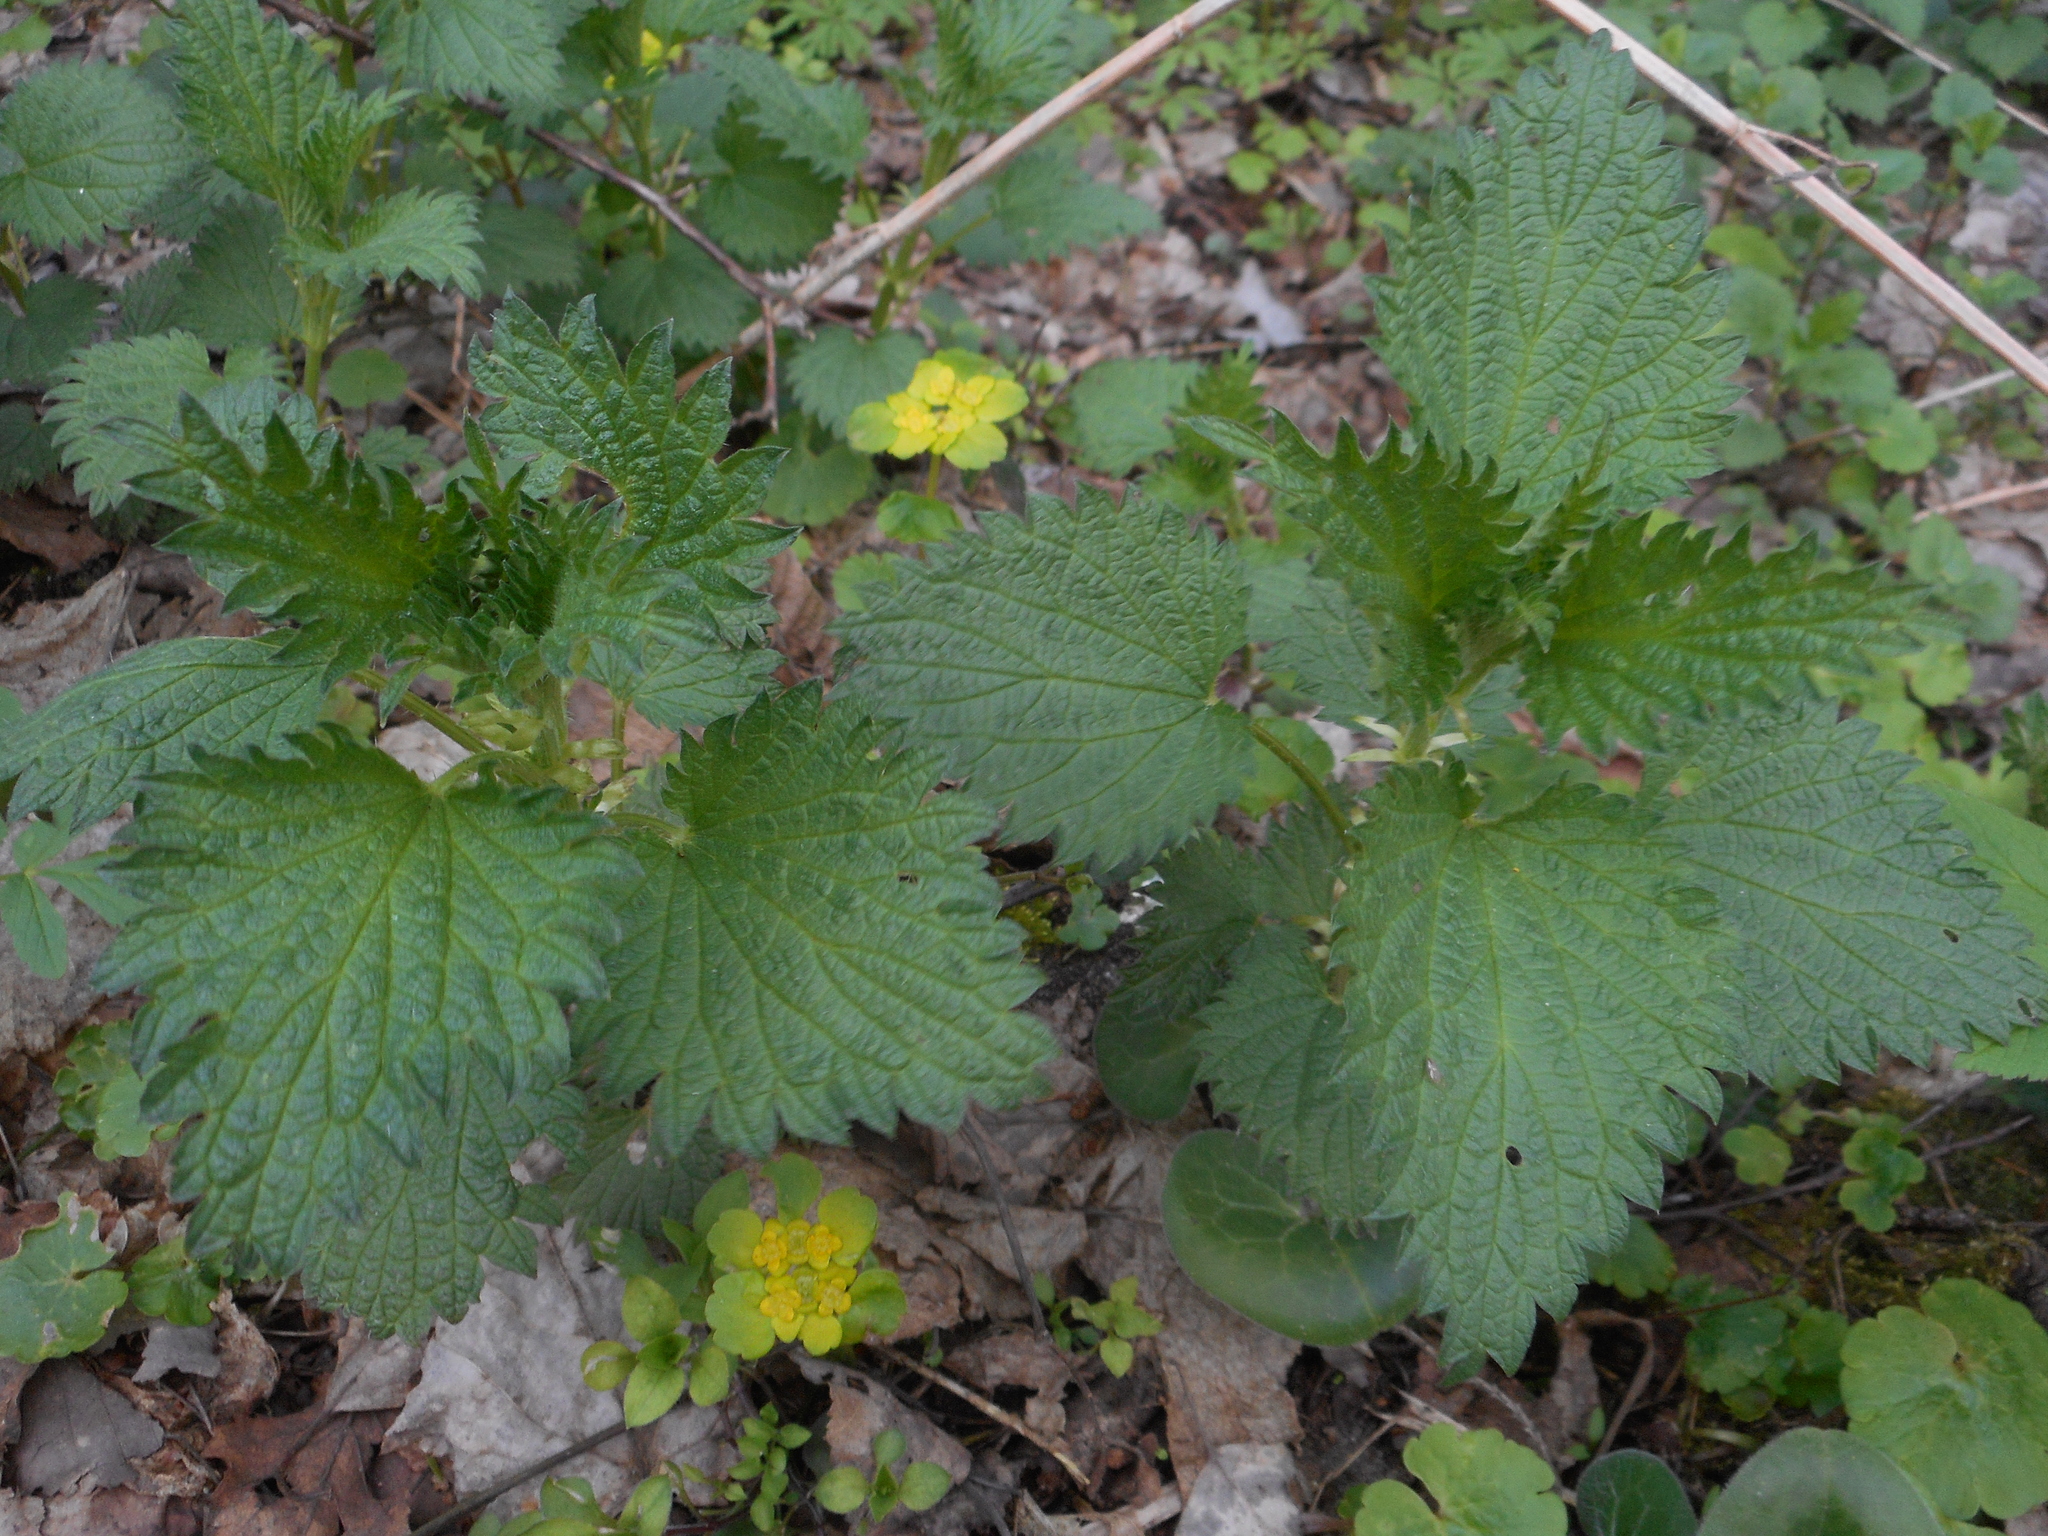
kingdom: Plantae
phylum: Tracheophyta
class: Magnoliopsida
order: Rosales
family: Urticaceae
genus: Urtica
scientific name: Urtica dioica
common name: Common nettle
